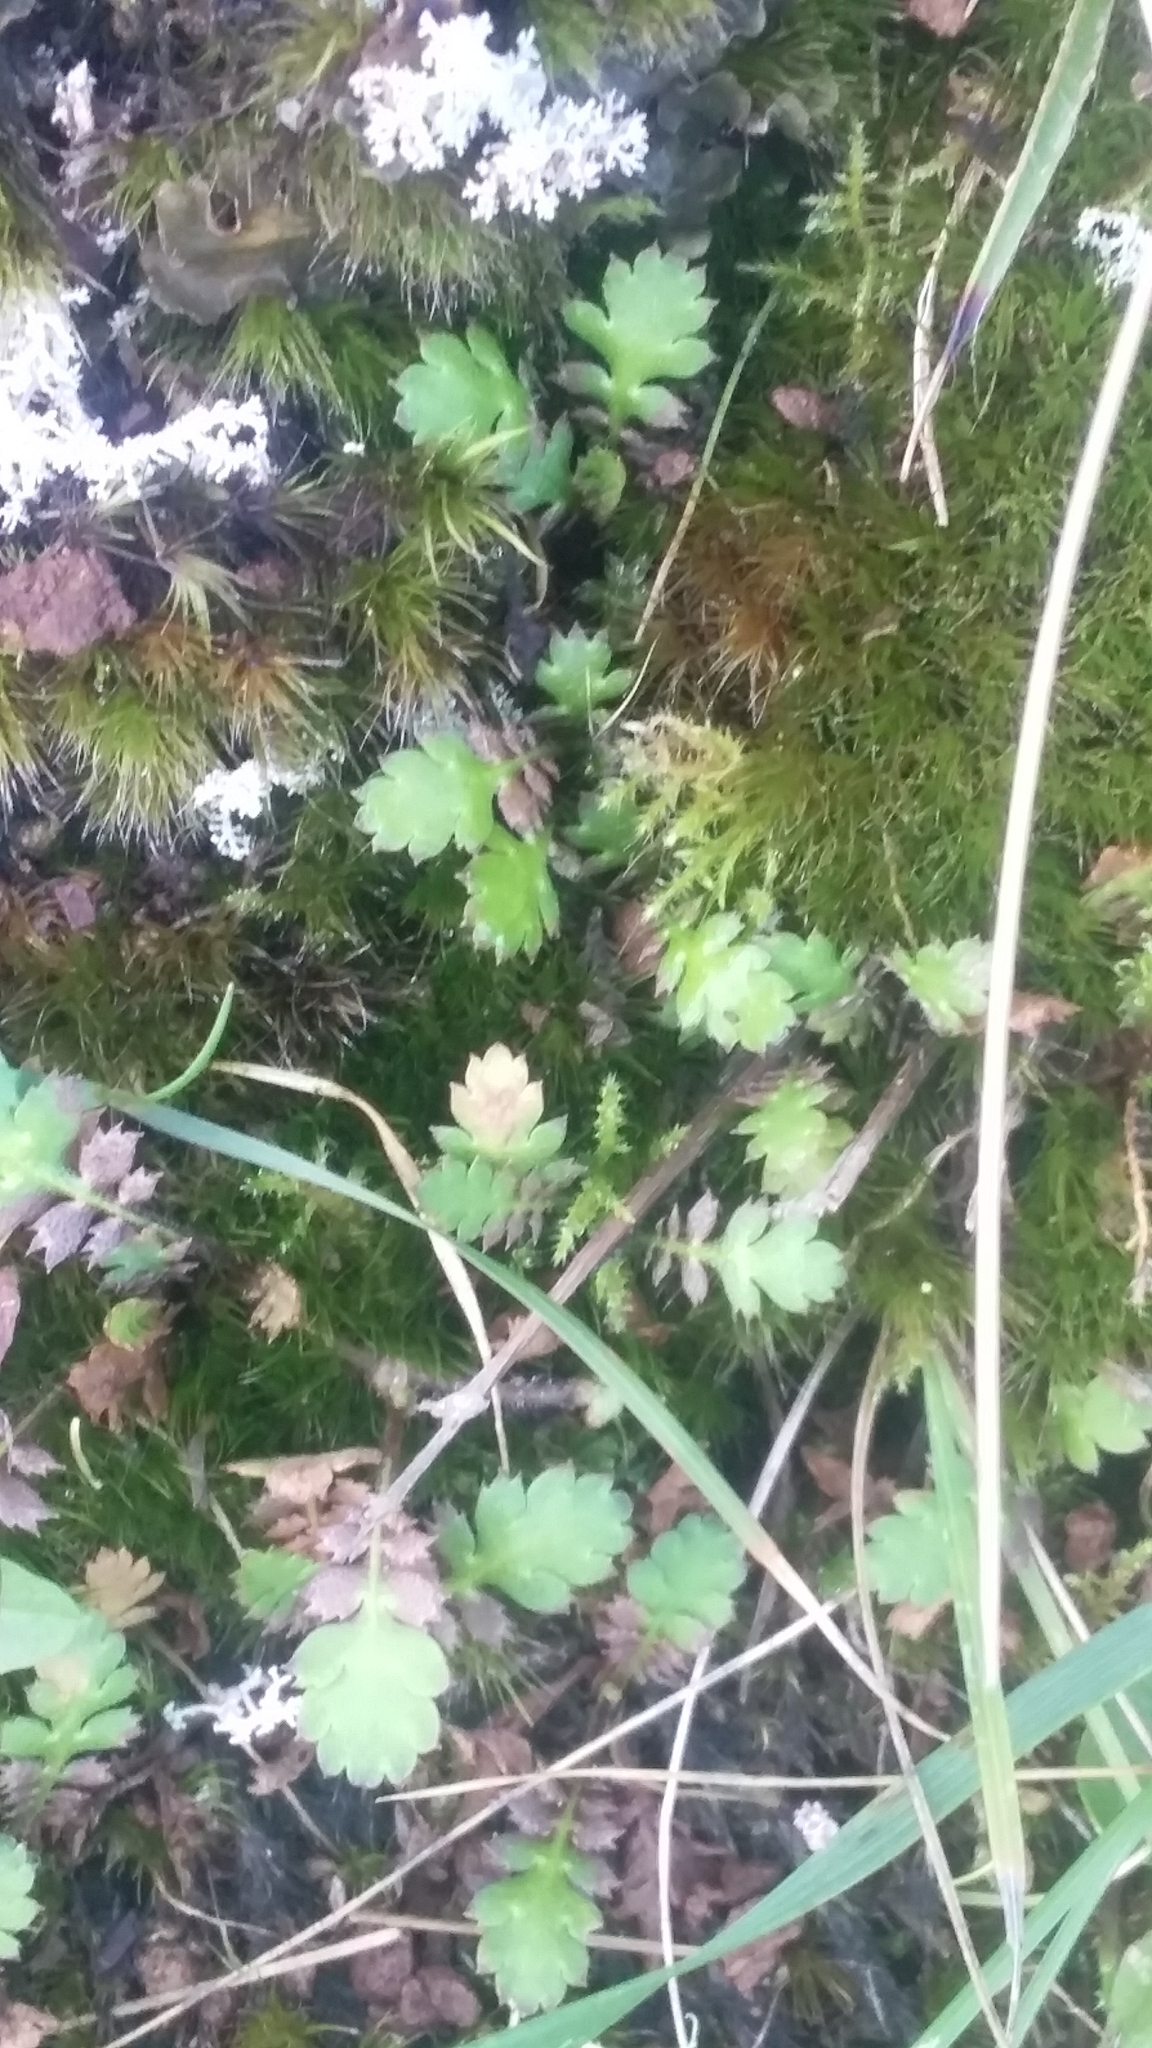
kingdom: Plantae
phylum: Tracheophyta
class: Magnoliopsida
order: Asterales
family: Asteraceae
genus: Leptinella
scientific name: Leptinella squalida
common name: New zealand brass-buttons
